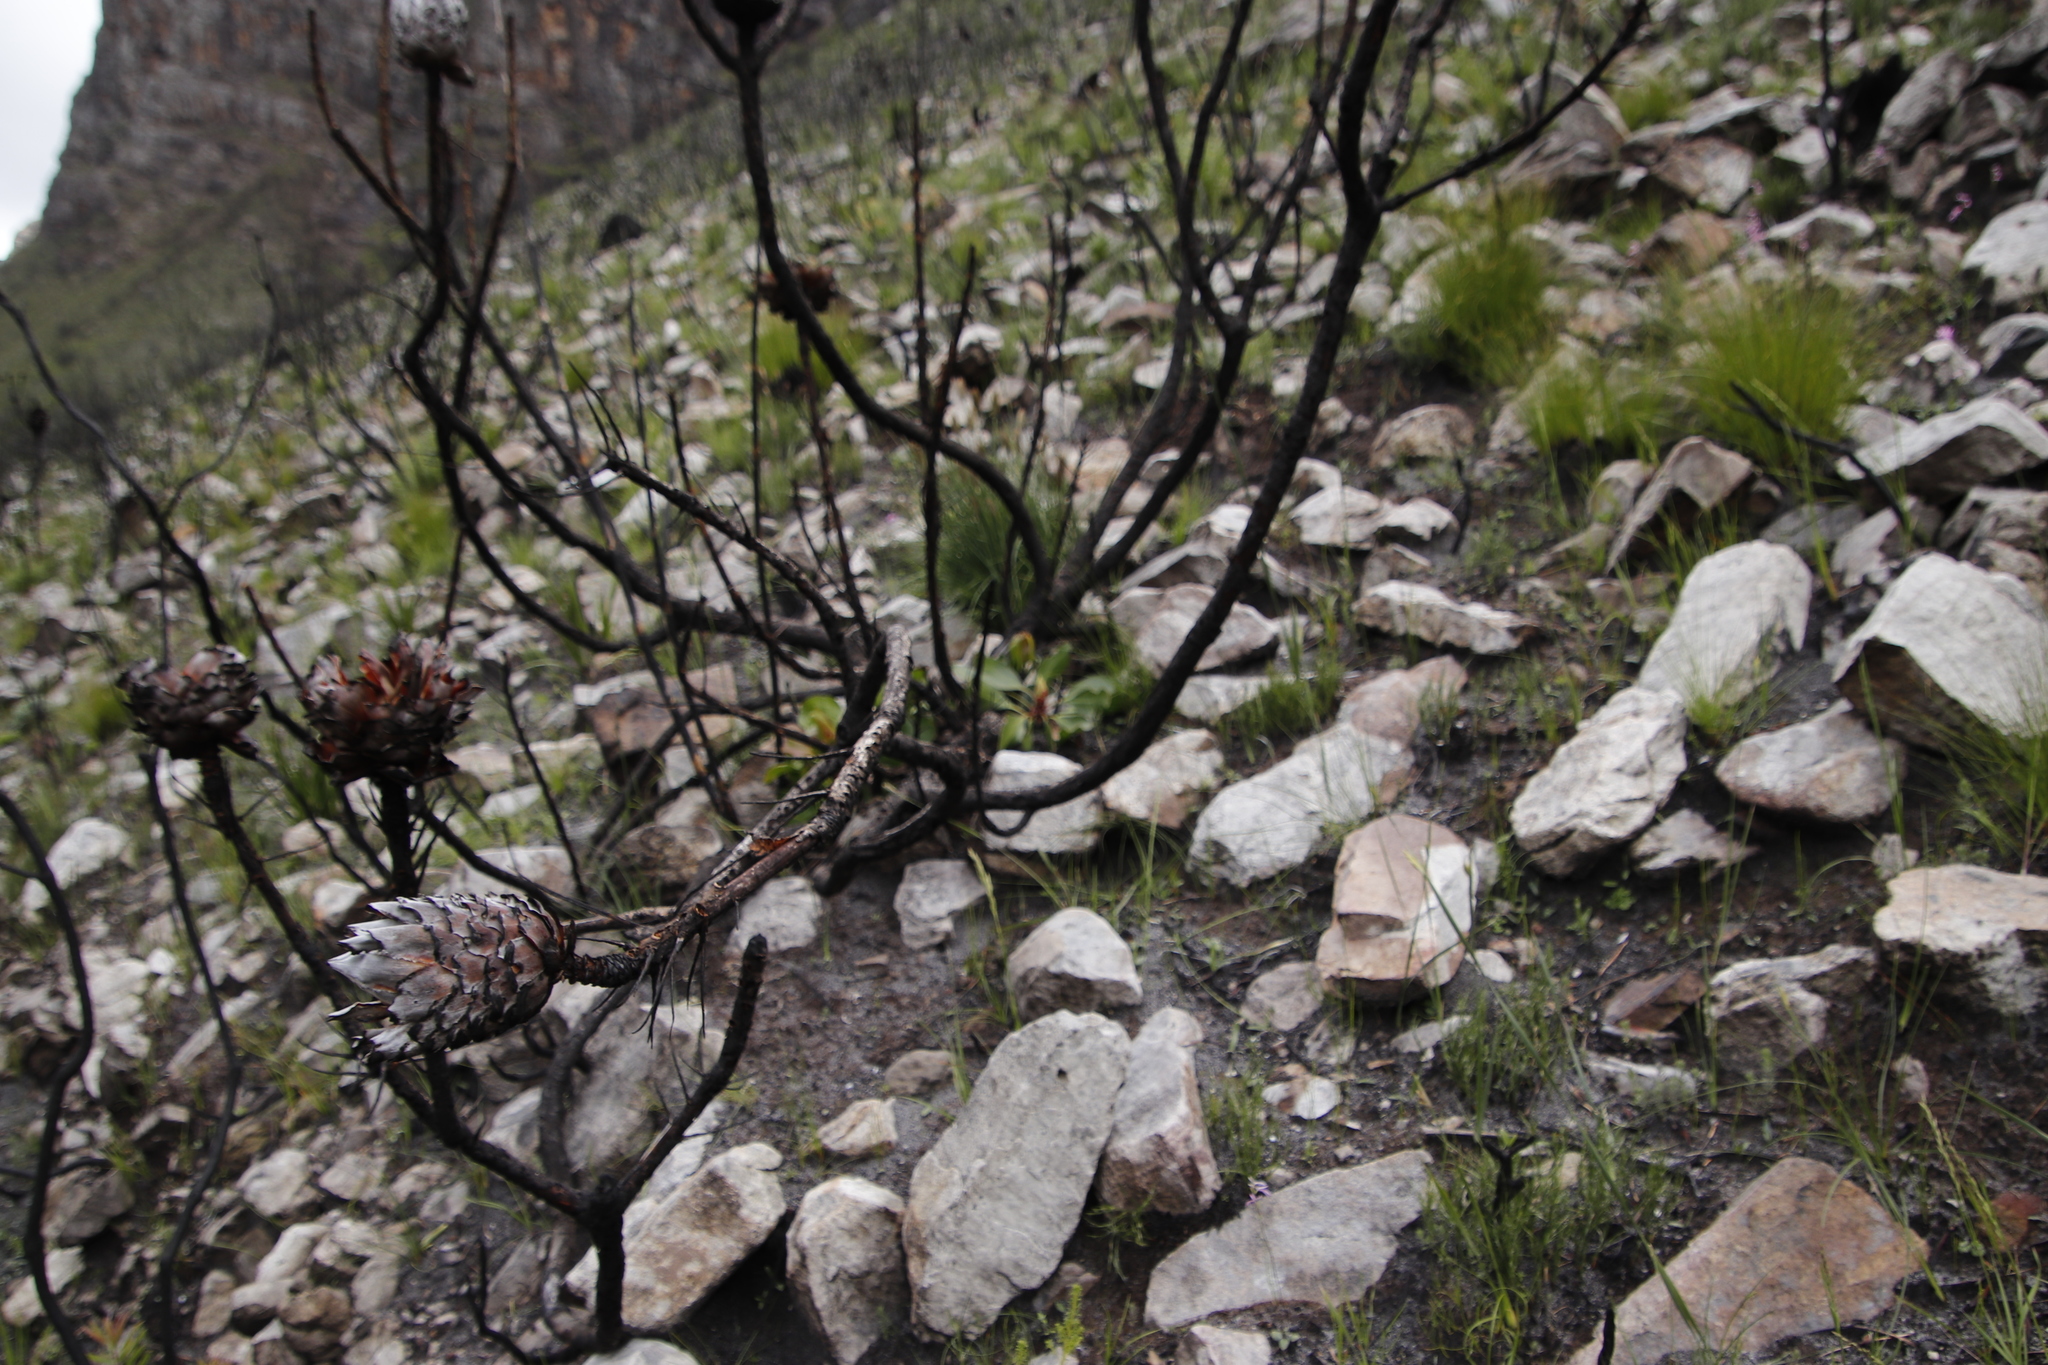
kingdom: Plantae
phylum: Tracheophyta
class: Magnoliopsida
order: Proteales
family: Proteaceae
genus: Protea
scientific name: Protea cynaroides
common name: King protea
